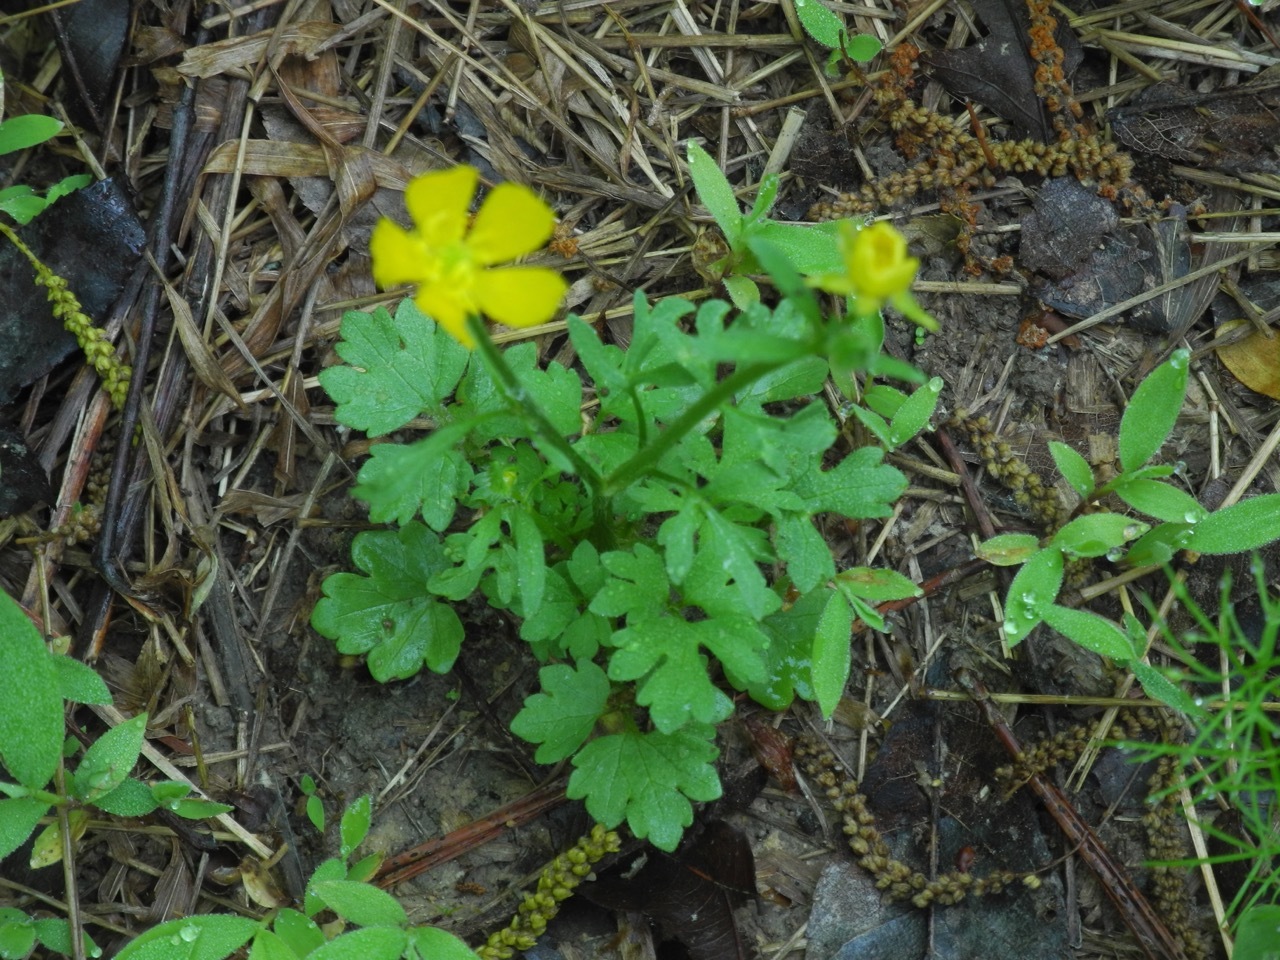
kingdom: Plantae
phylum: Tracheophyta
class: Magnoliopsida
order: Ranunculales
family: Ranunculaceae
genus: Ranunculus
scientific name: Ranunculus sardous
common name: Hairy buttercup
